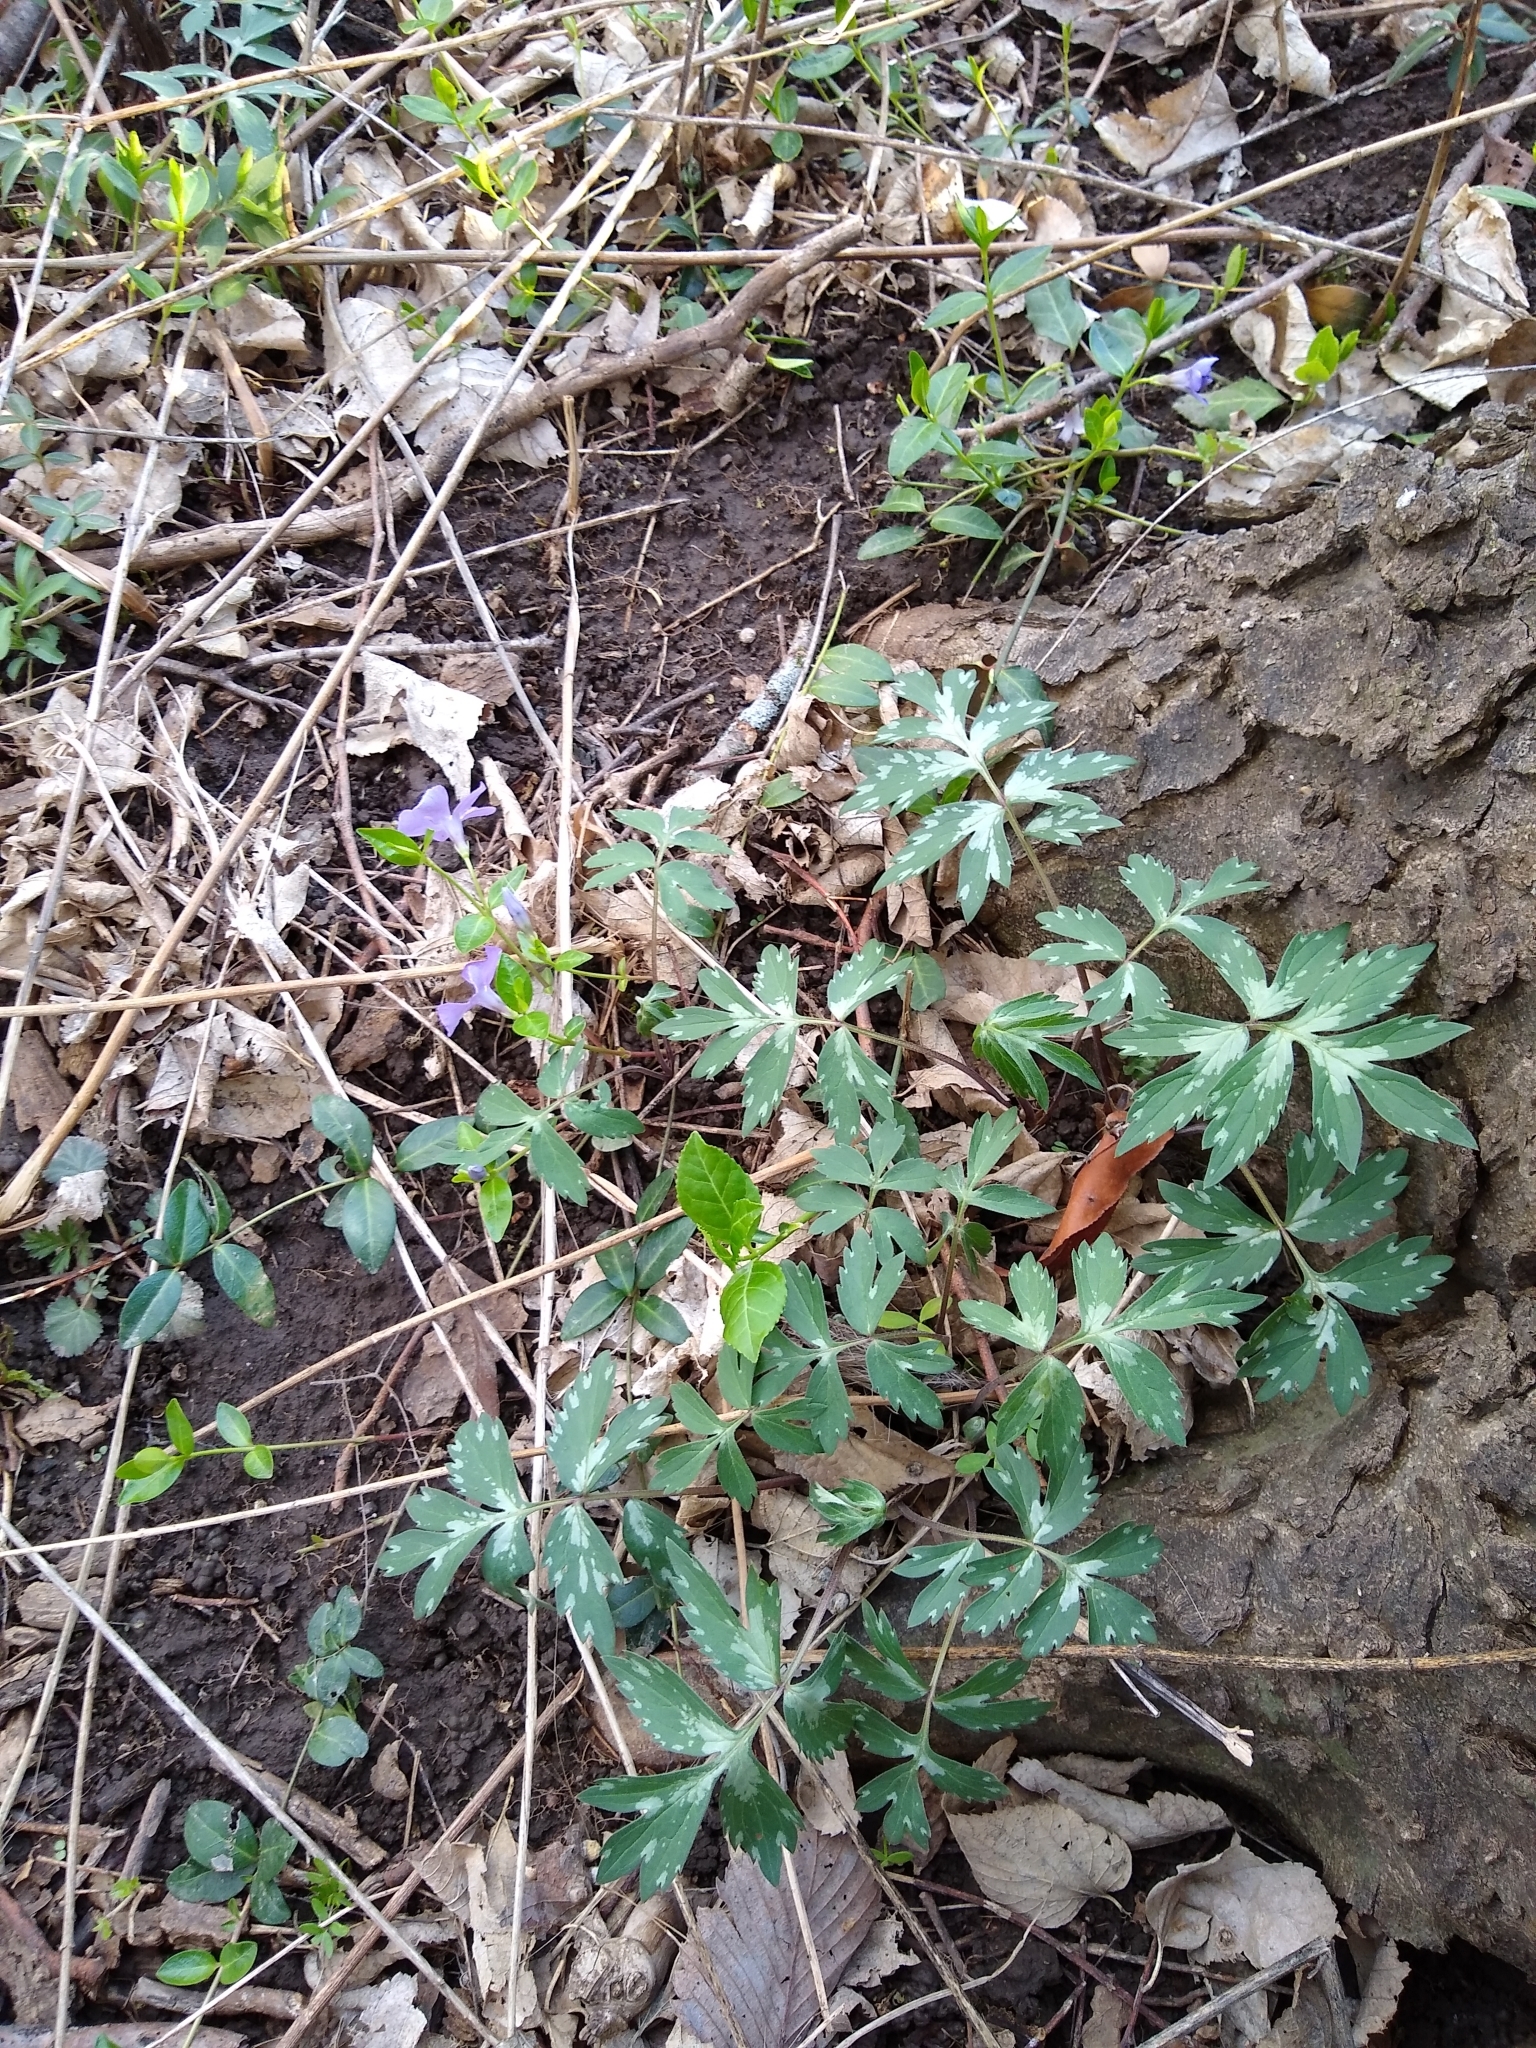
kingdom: Plantae
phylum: Tracheophyta
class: Magnoliopsida
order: Boraginales
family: Hydrophyllaceae
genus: Hydrophyllum
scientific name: Hydrophyllum virginianum
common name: Virginia waterleaf
